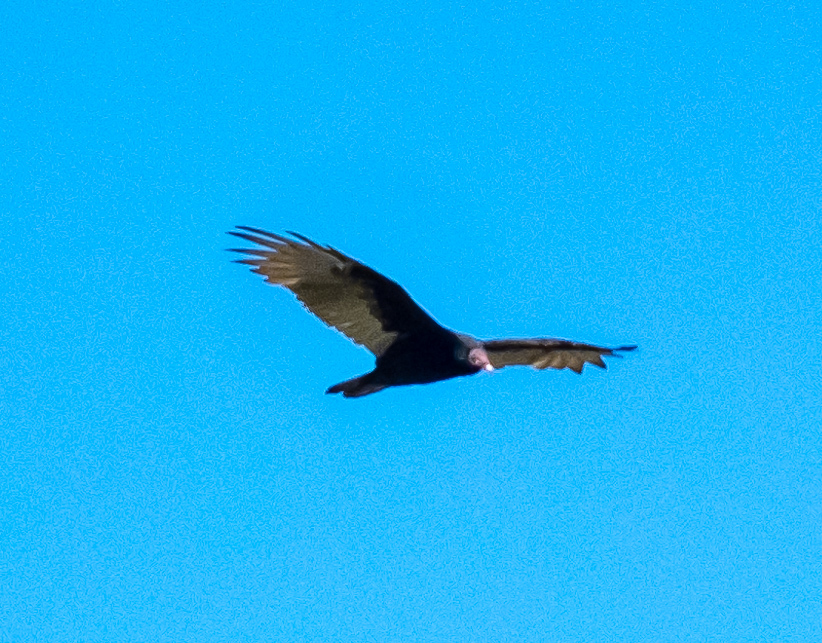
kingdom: Animalia
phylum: Chordata
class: Aves
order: Accipitriformes
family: Cathartidae
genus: Cathartes
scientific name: Cathartes aura
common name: Turkey vulture
